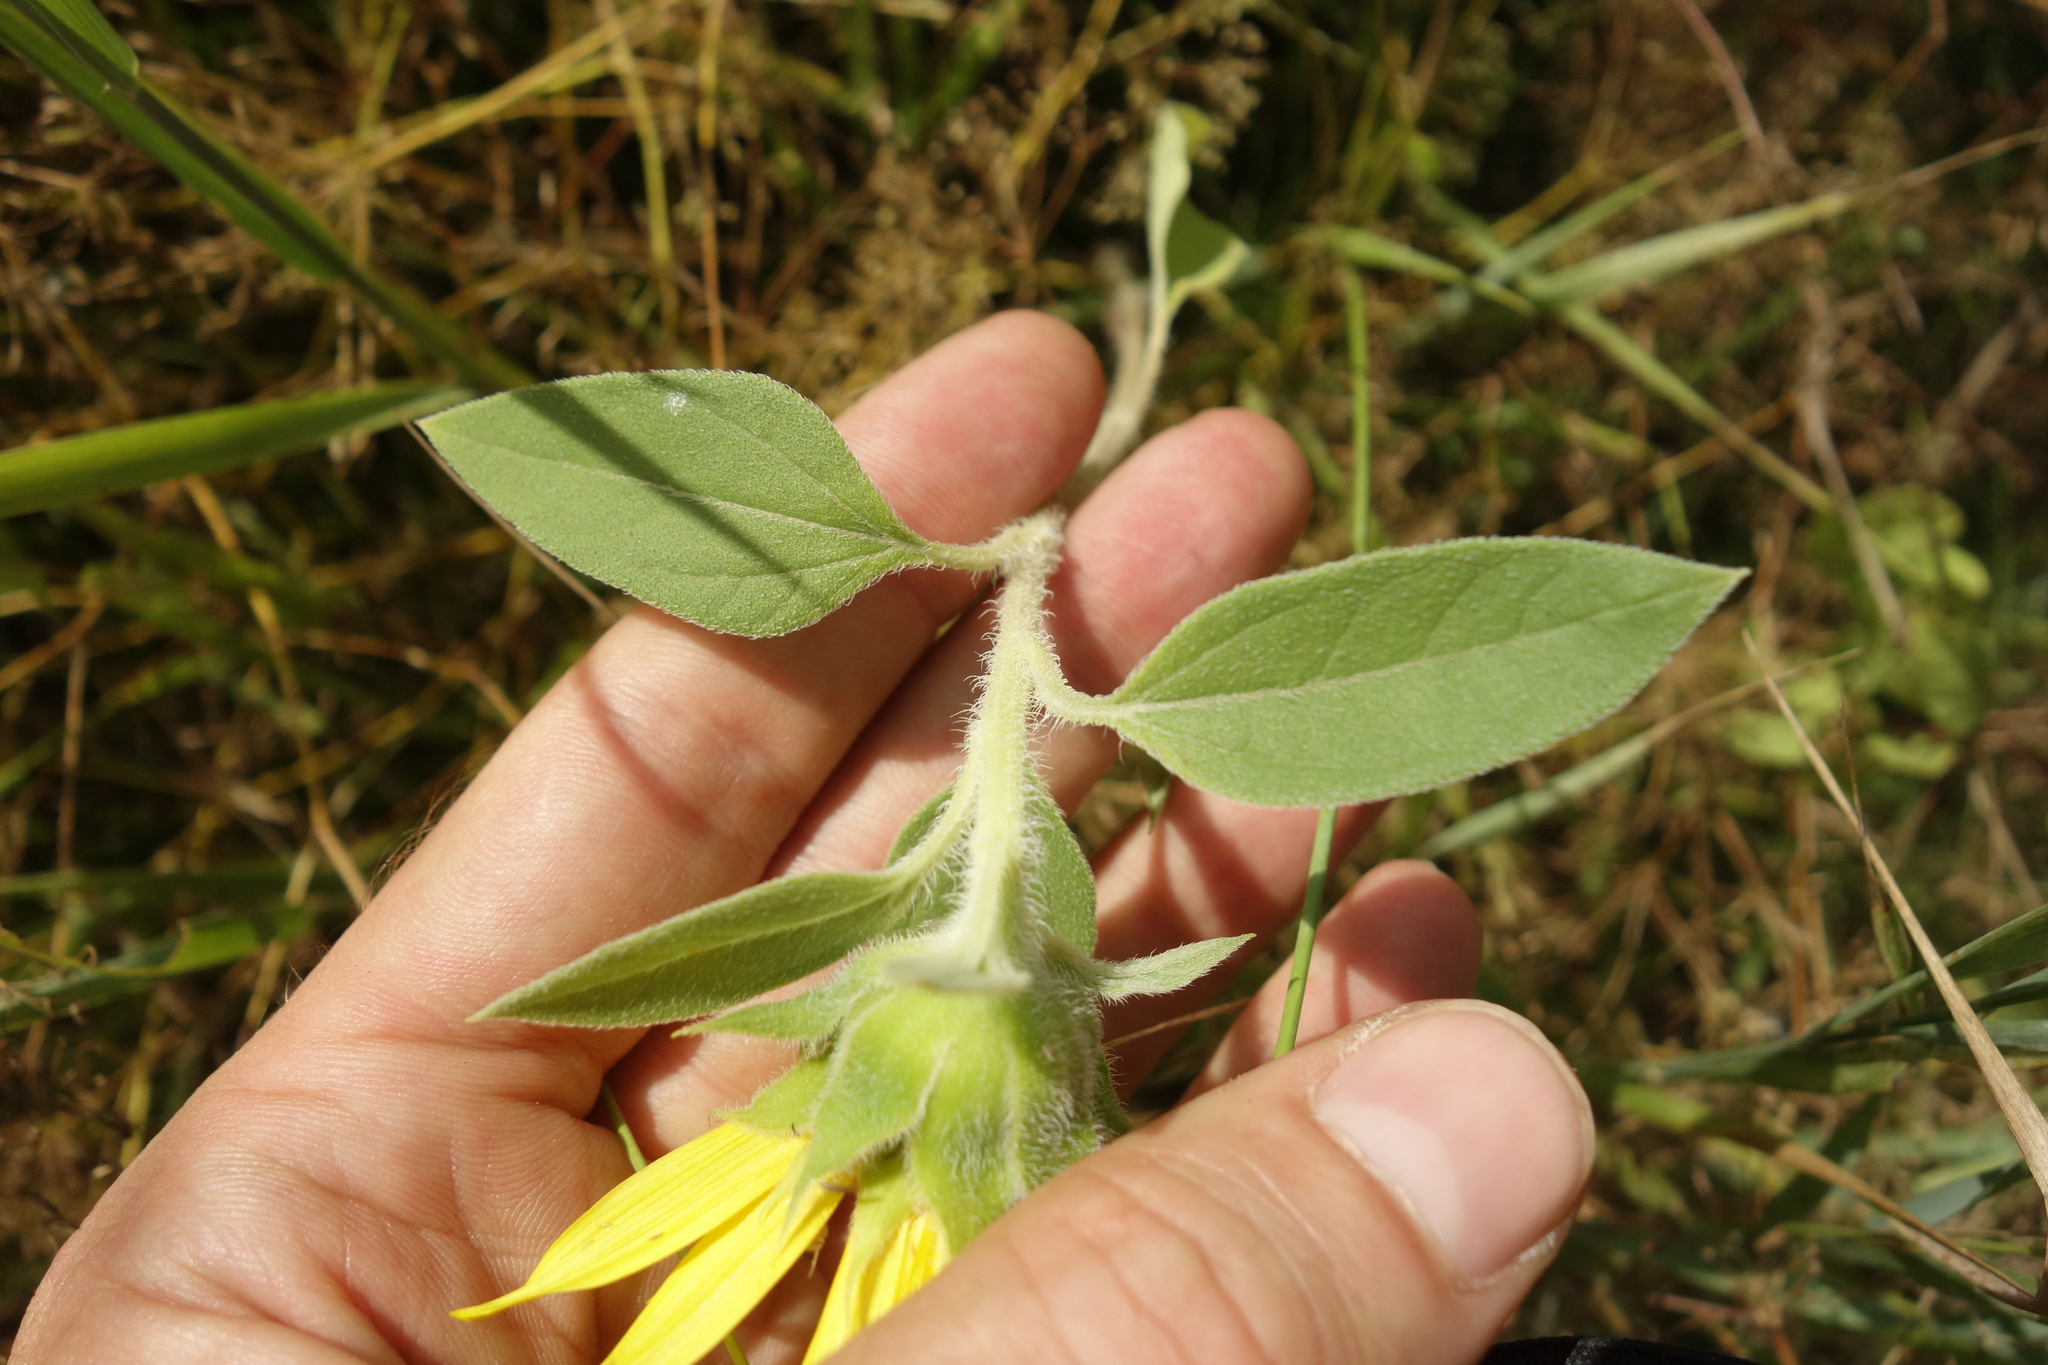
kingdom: Plantae
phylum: Tracheophyta
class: Magnoliopsida
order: Asterales
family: Asteraceae
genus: Helianthus
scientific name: Helianthus annuus
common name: Sunflower
